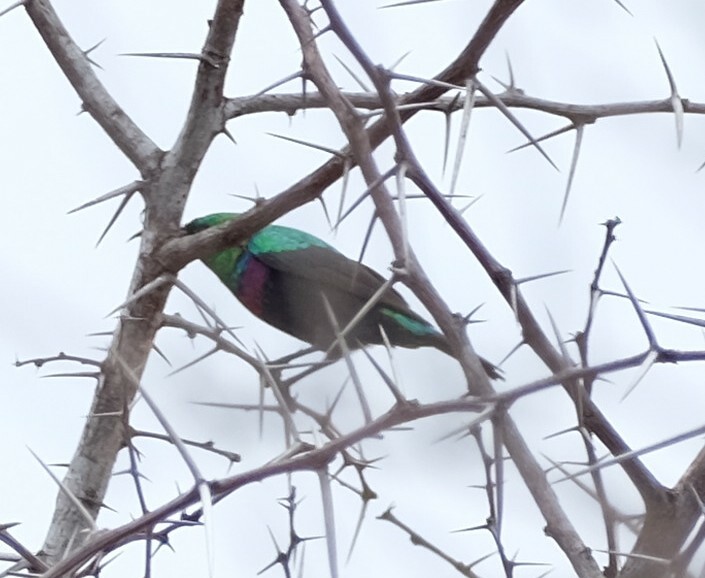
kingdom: Animalia
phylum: Chordata
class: Aves
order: Passeriformes
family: Nectariniidae
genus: Cinnyris
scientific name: Cinnyris mariquensis
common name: Marico sunbird
